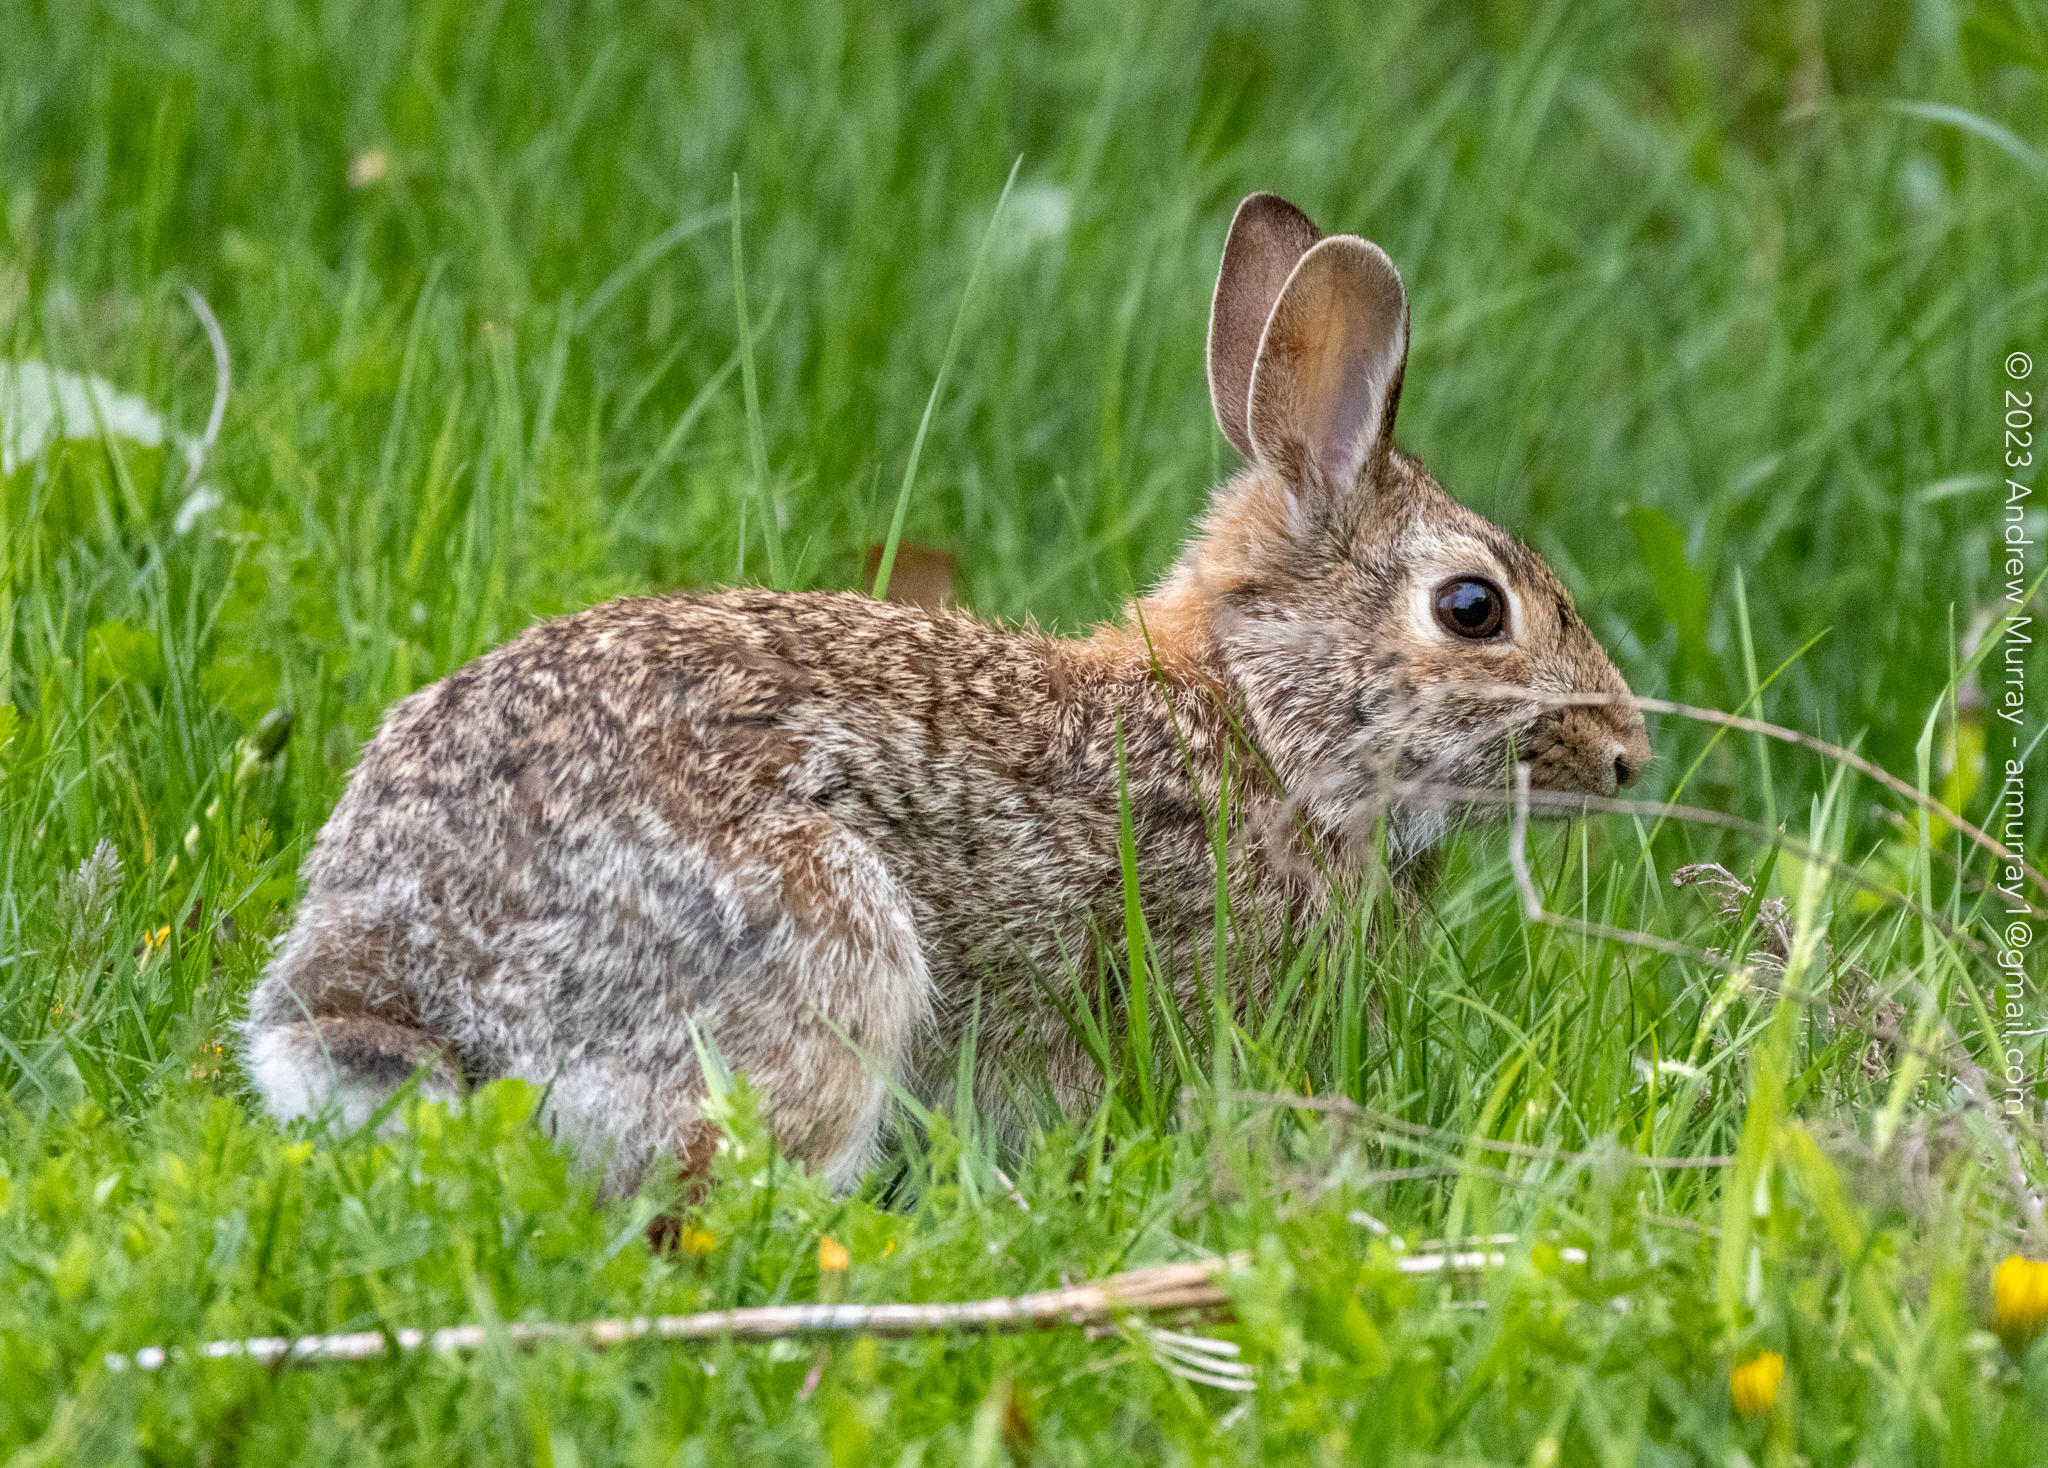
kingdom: Animalia
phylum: Chordata
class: Mammalia
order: Lagomorpha
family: Leporidae
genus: Sylvilagus
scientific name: Sylvilagus floridanus
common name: Eastern cottontail
